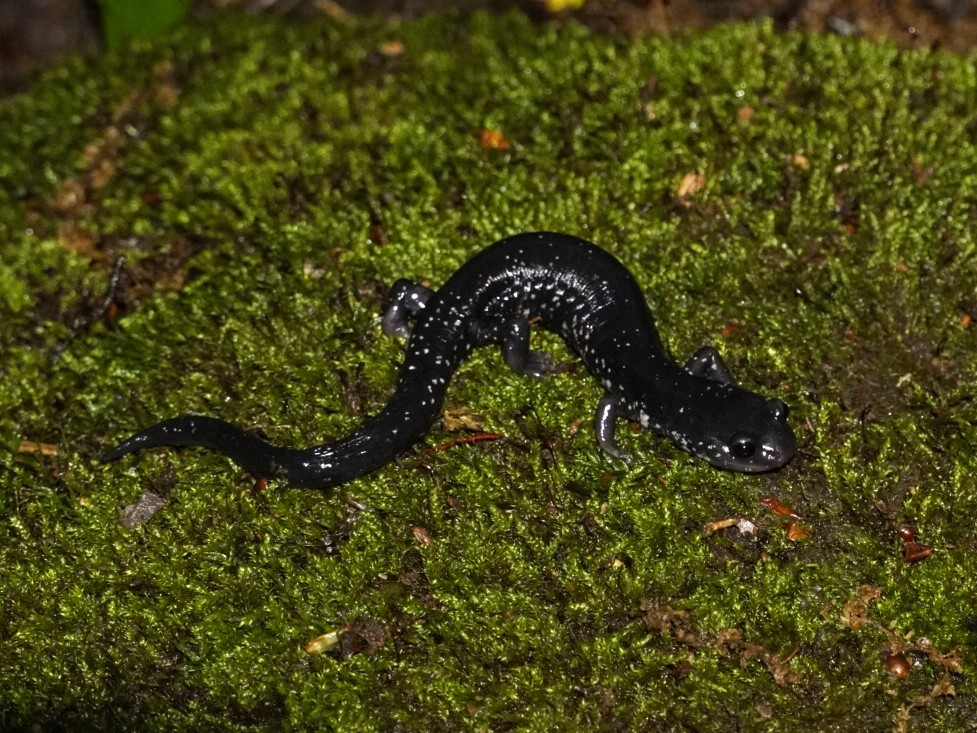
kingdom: Animalia
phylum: Chordata
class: Amphibia
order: Caudata
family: Plethodontidae
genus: Plethodon
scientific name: Plethodon
